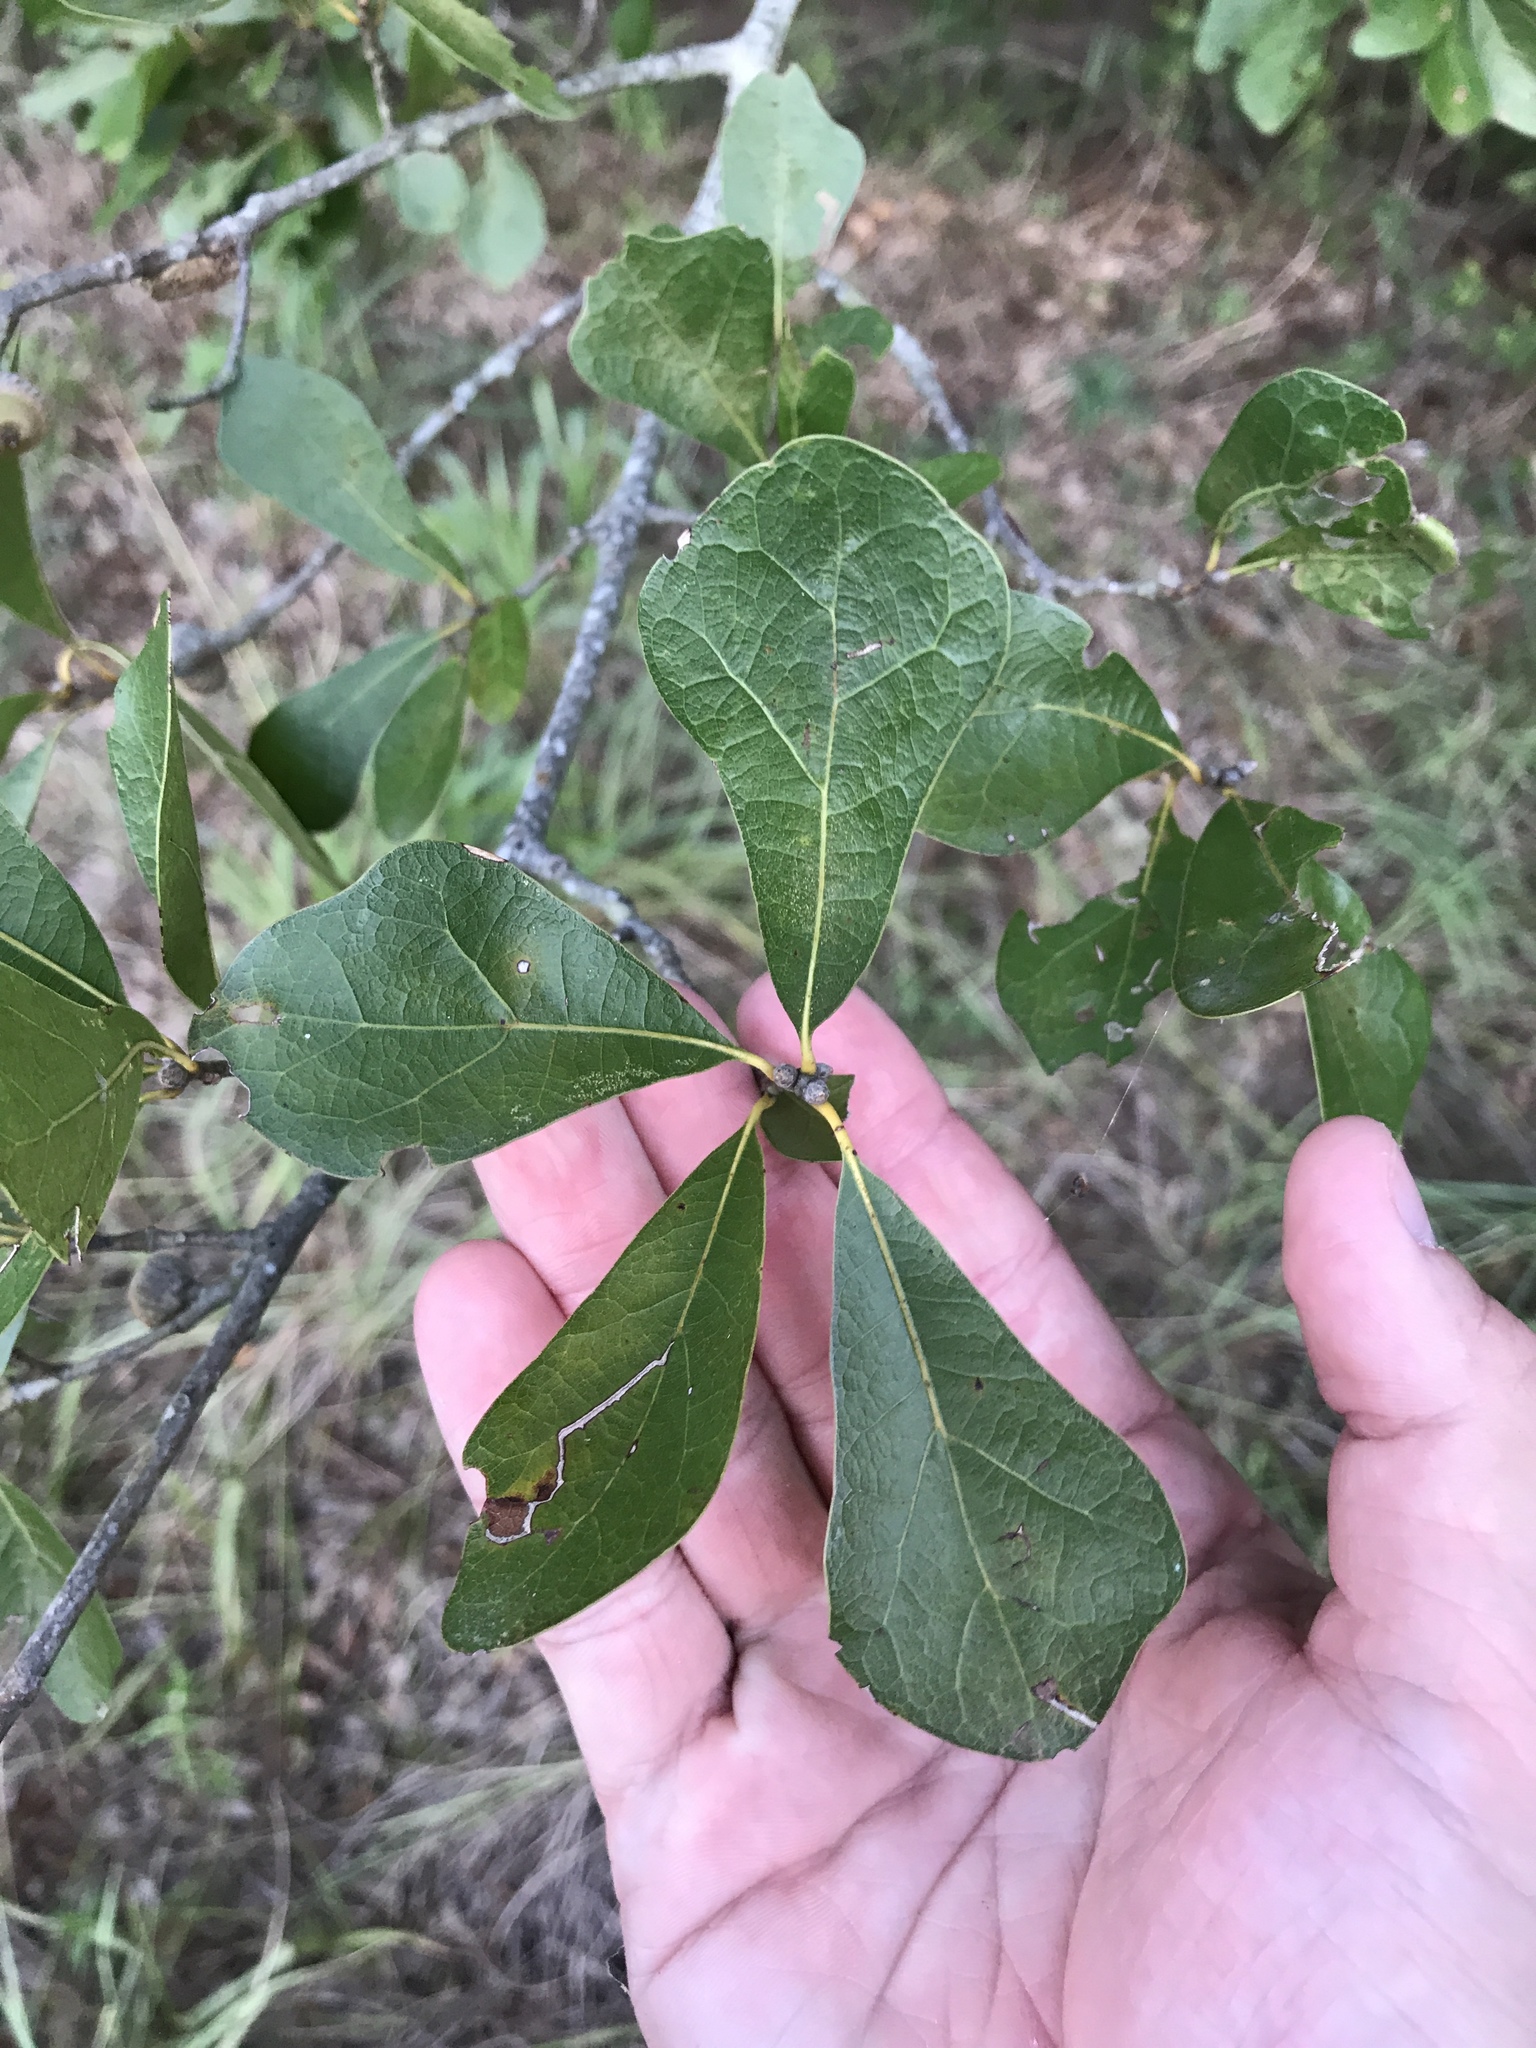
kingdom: Plantae
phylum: Tracheophyta
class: Magnoliopsida
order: Fagales
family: Fagaceae
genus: Quercus
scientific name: Quercus nigra
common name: Water oak
